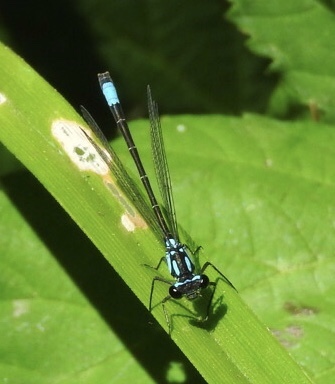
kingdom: Animalia
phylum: Arthropoda
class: Insecta
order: Odonata
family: Coenagrionidae
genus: Zoniagrion
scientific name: Zoniagrion exclamationis
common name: Exclamation damsel
